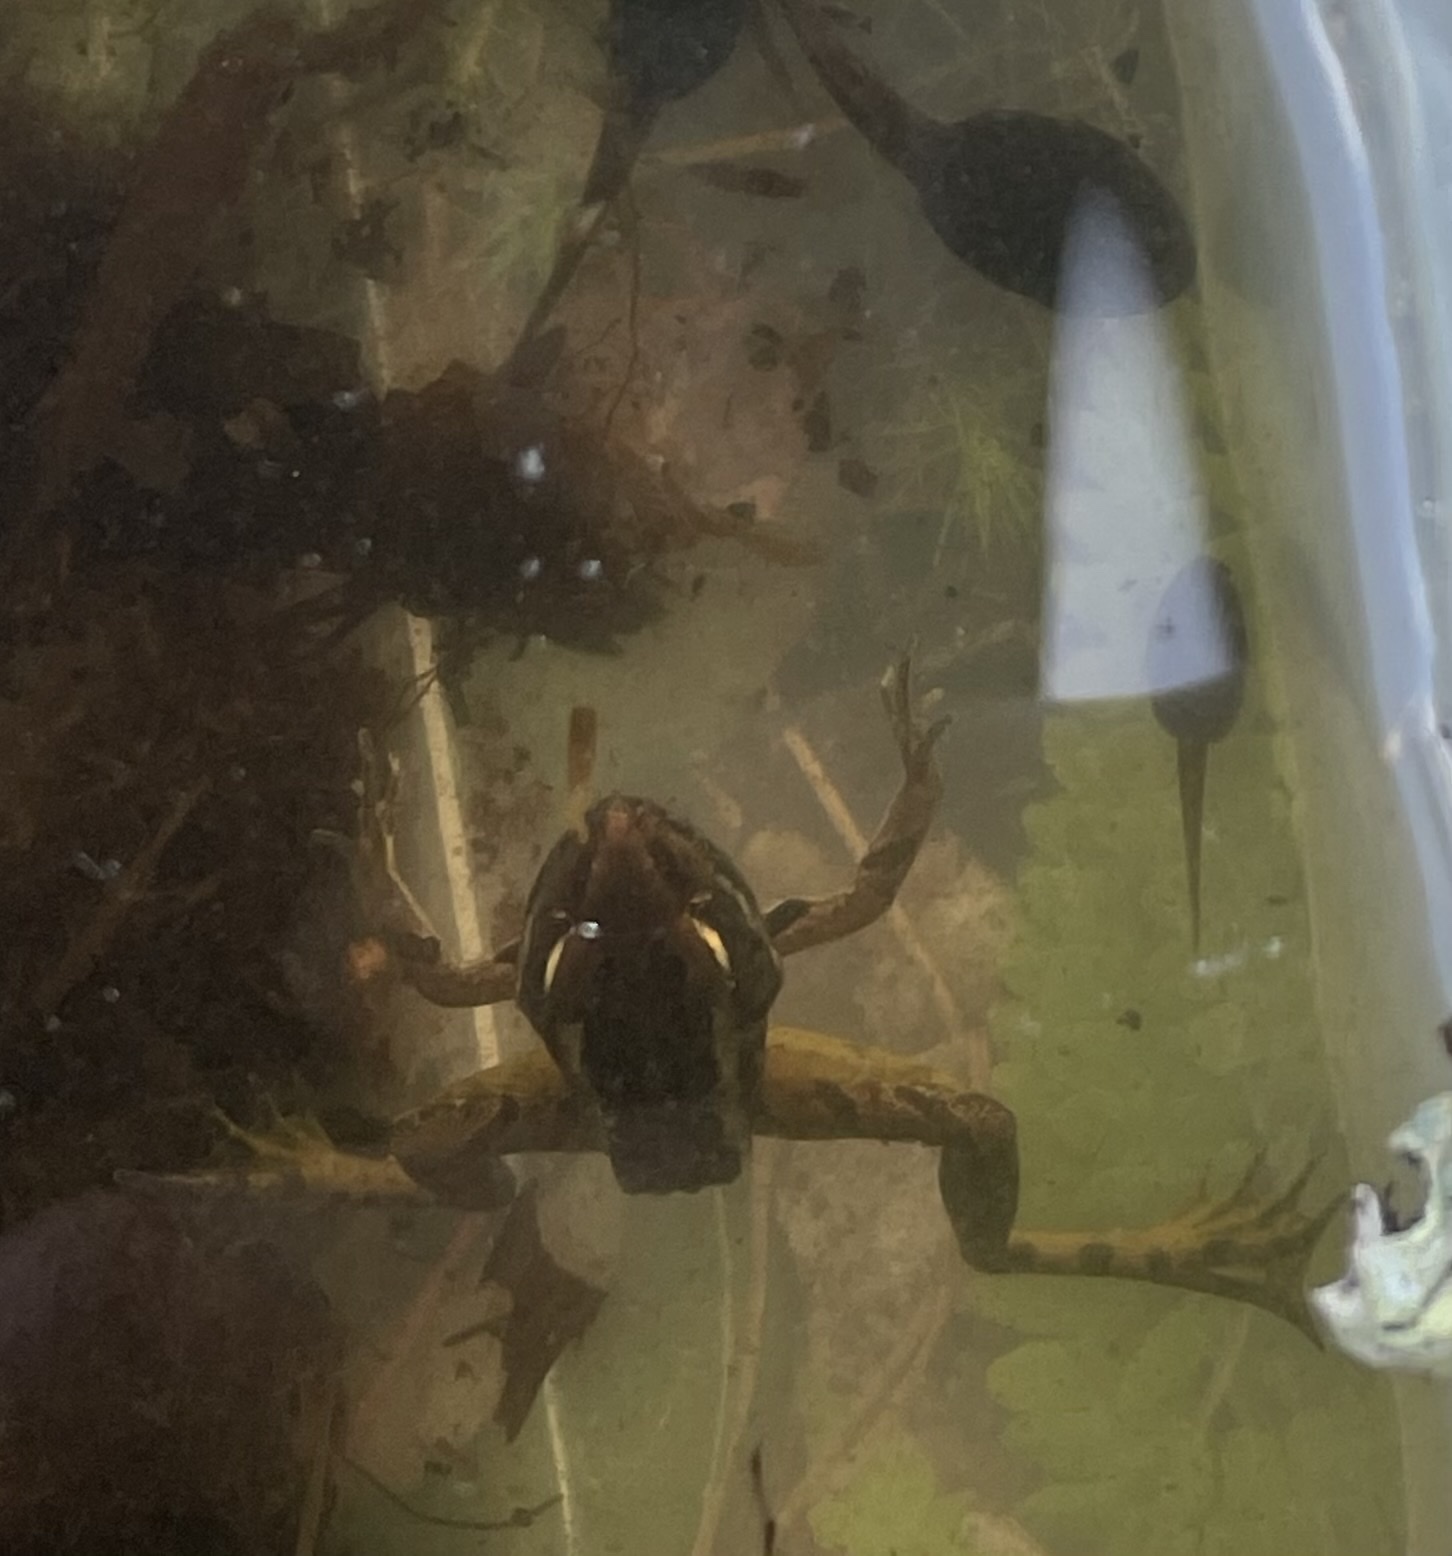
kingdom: Animalia
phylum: Chordata
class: Amphibia
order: Anura
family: Ranidae
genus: Lithobates
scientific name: Lithobates palustris
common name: Pickerel frog
